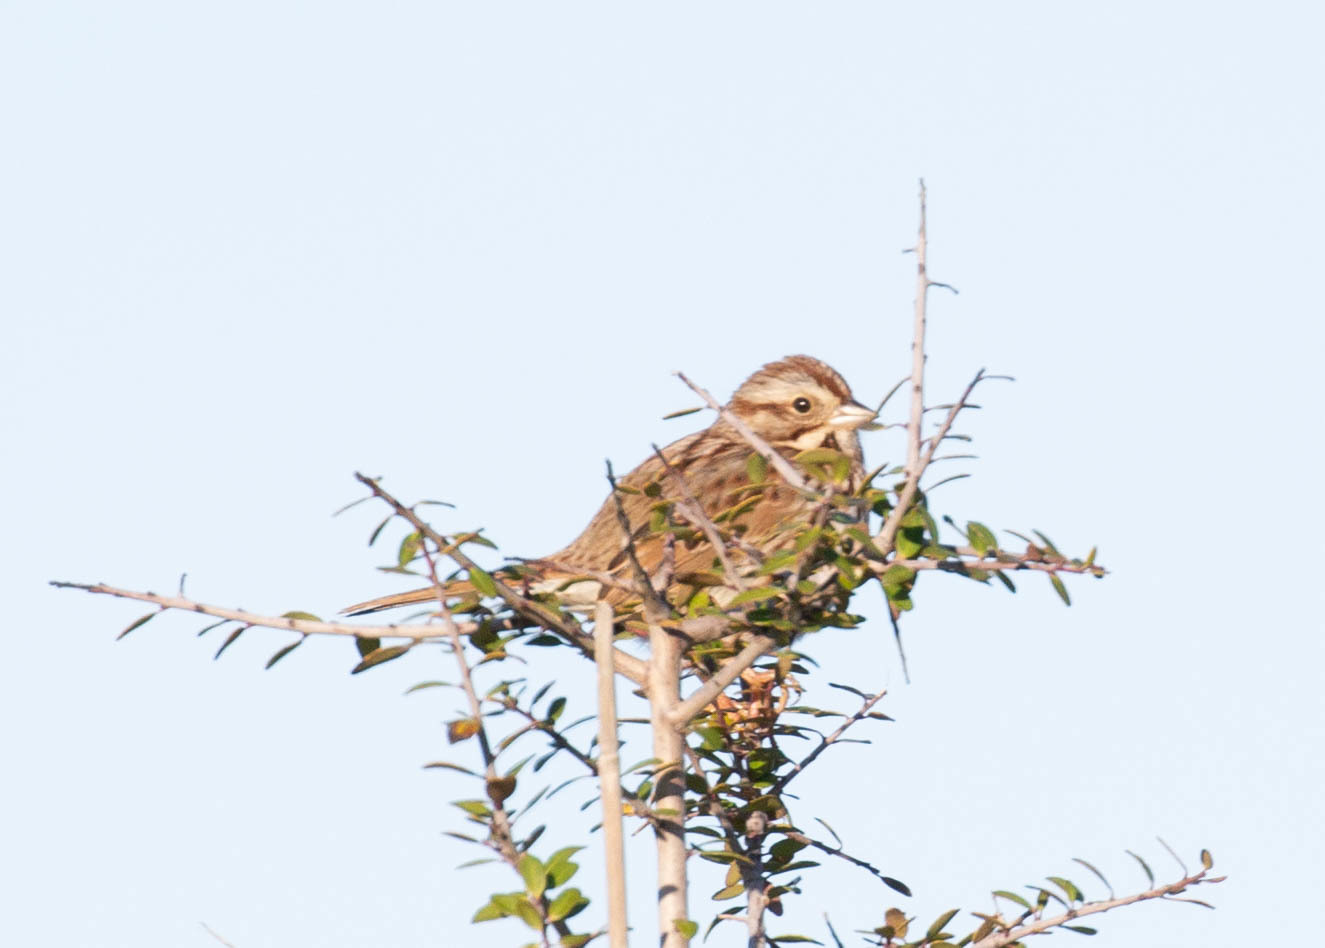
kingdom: Animalia
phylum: Chordata
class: Aves
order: Passeriformes
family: Passerellidae
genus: Melospiza
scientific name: Melospiza melodia
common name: Song sparrow
